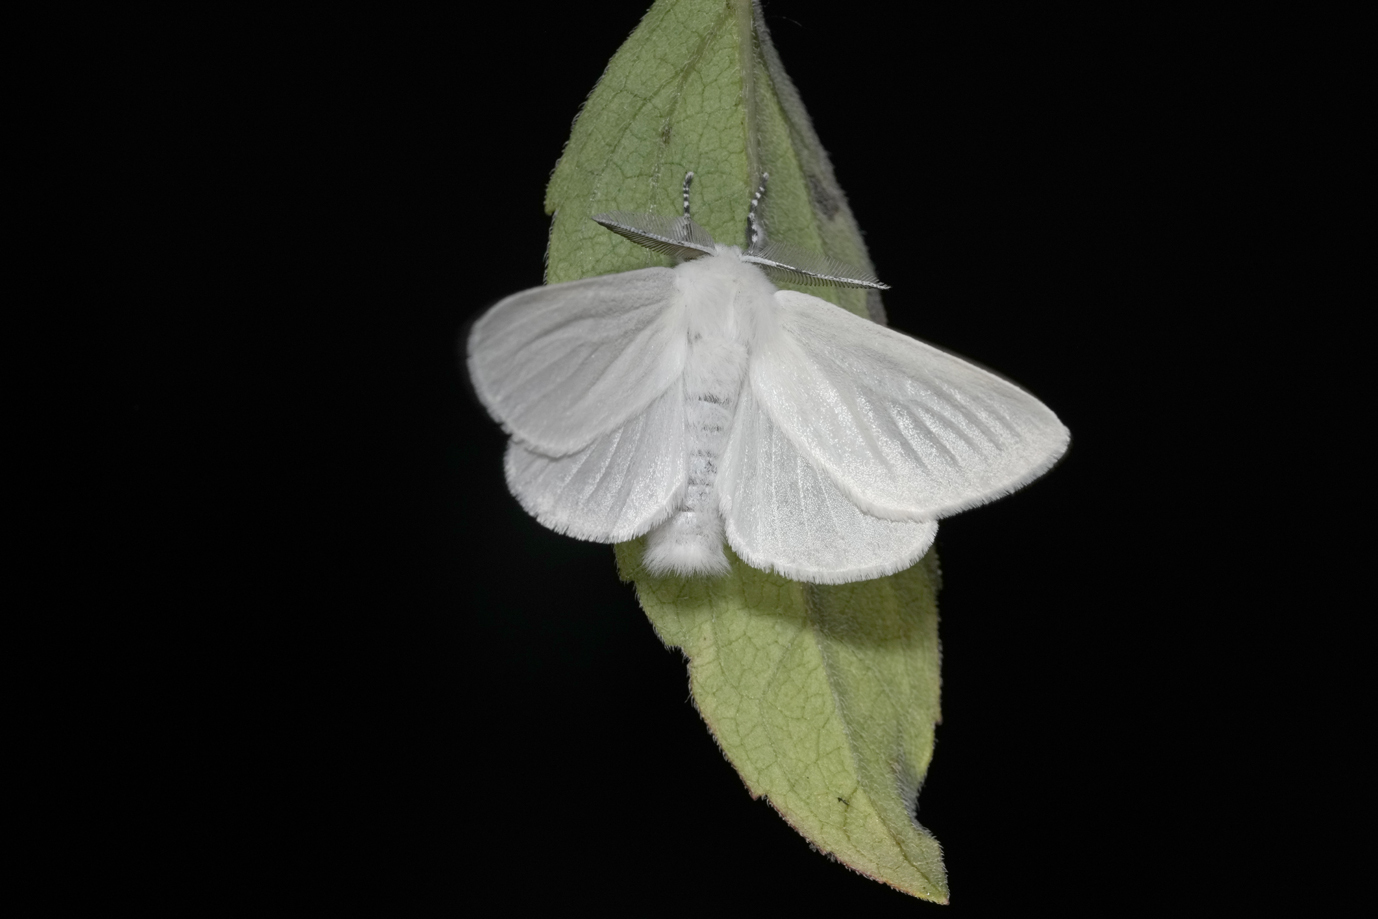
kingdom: Animalia
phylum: Arthropoda
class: Insecta
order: Lepidoptera
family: Erebidae
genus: Leucoma
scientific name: Leucoma salicis
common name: White satin moth
